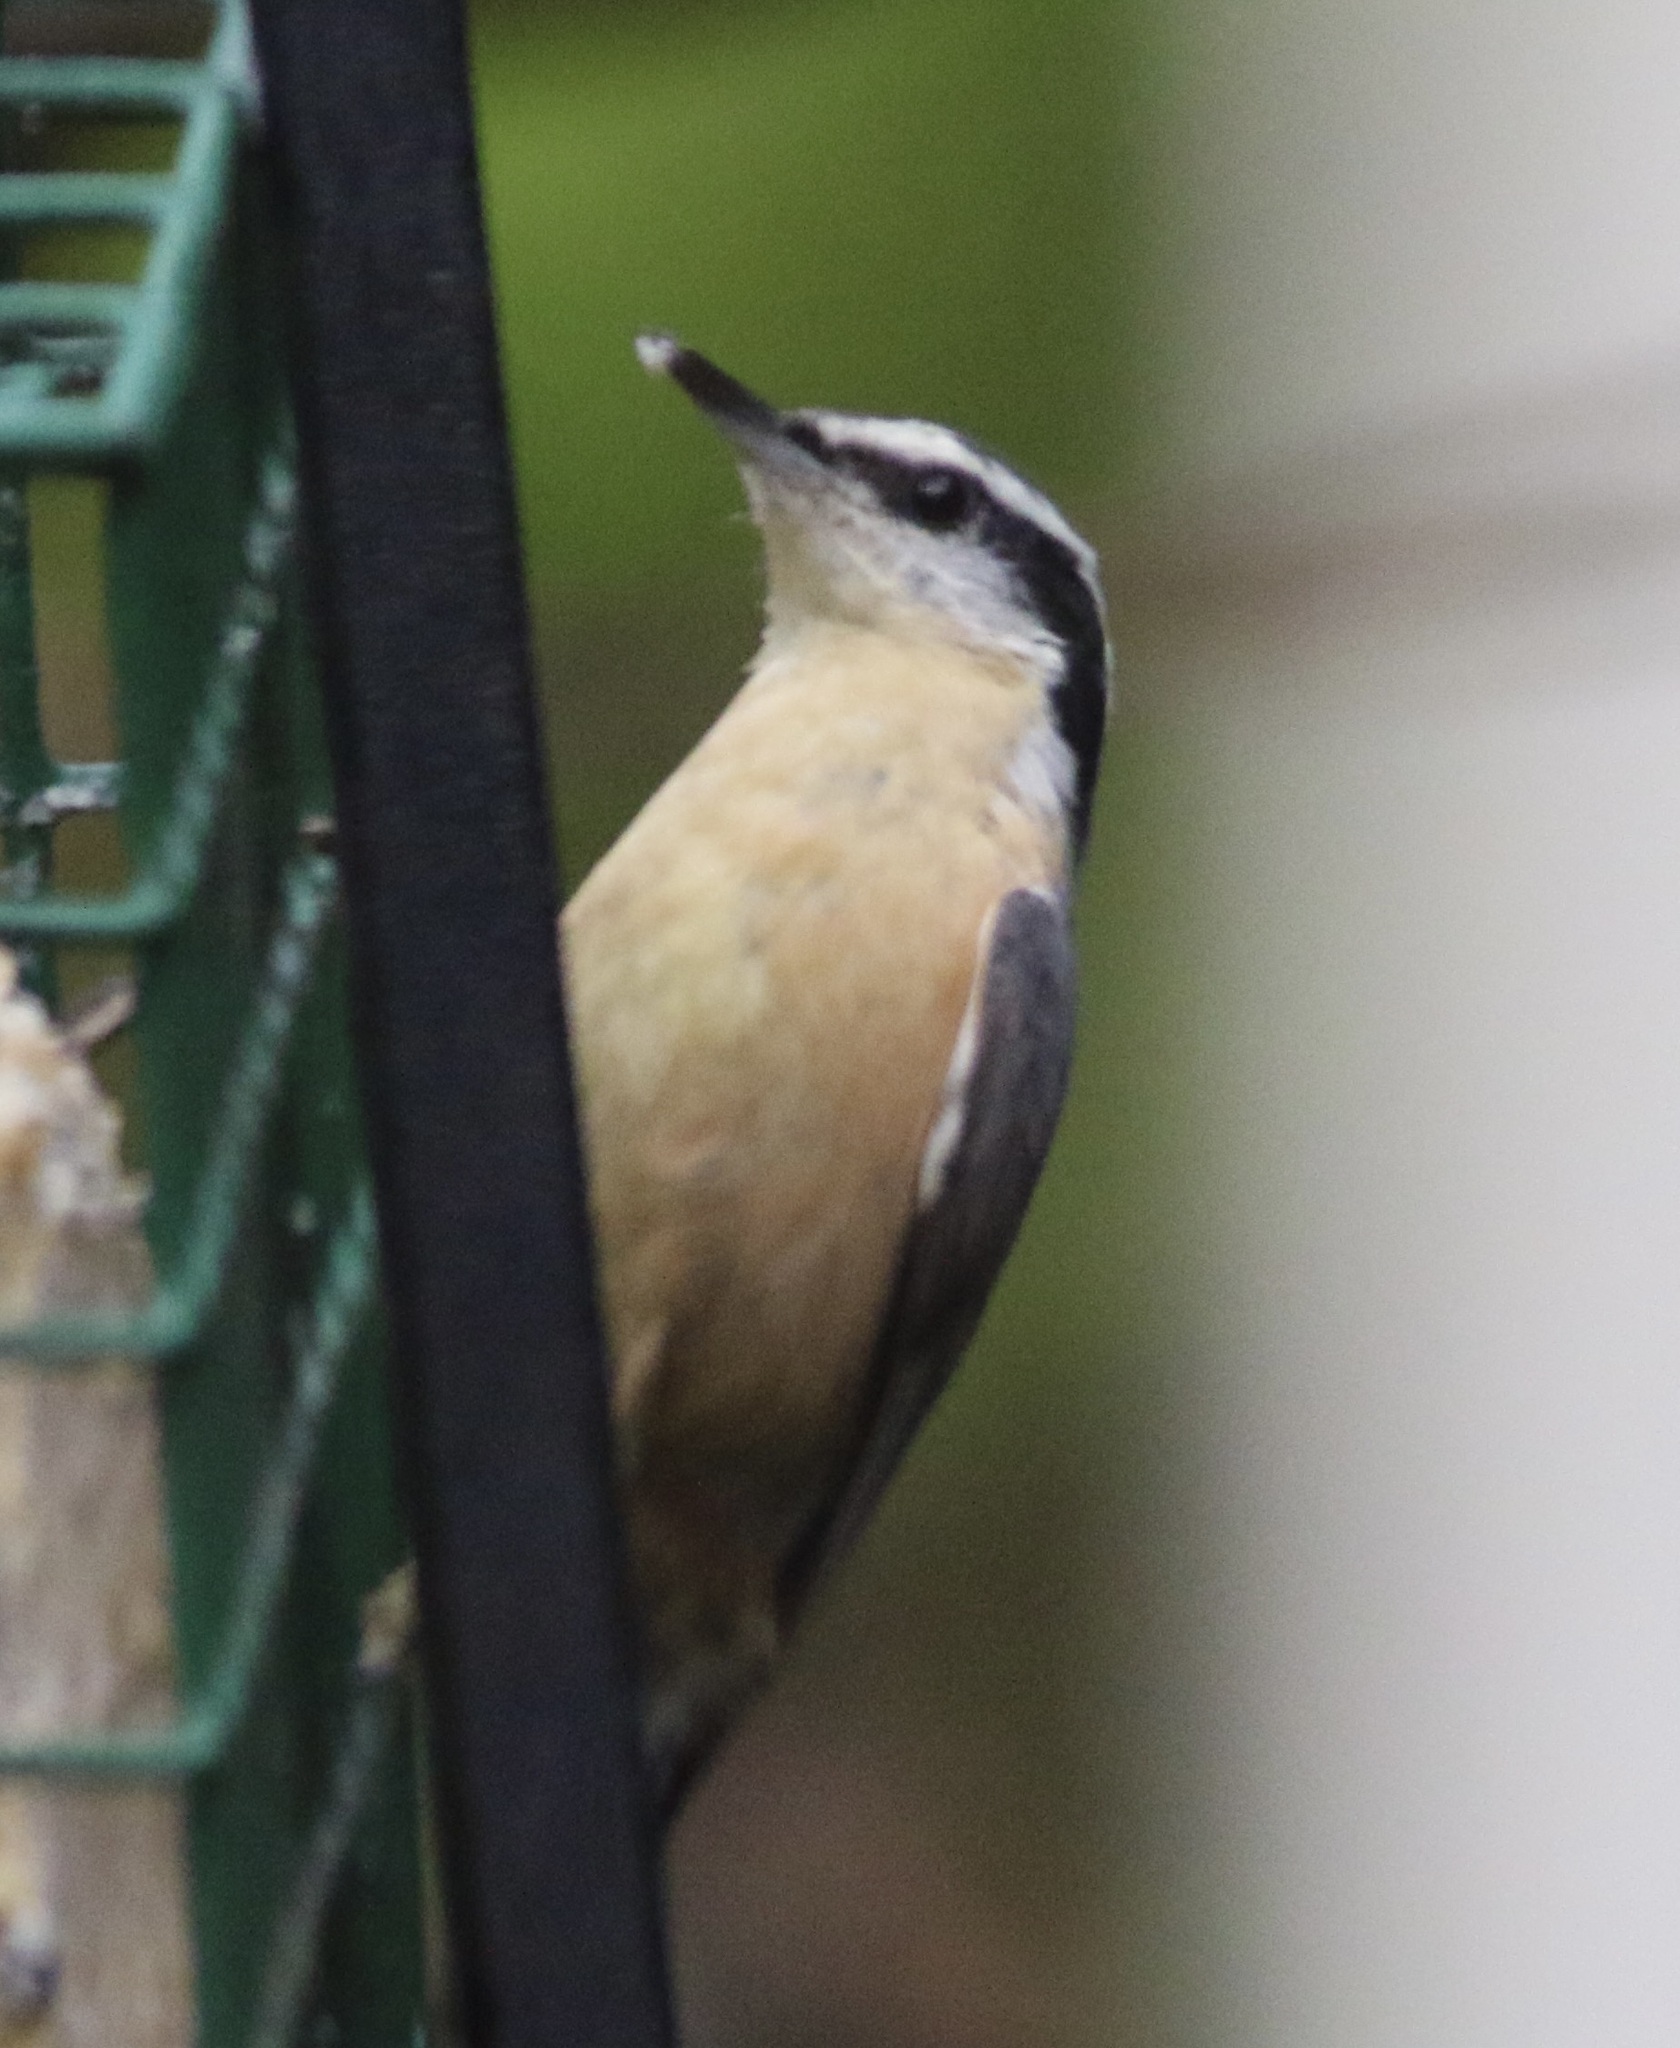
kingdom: Animalia
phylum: Chordata
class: Aves
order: Passeriformes
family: Sittidae
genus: Sitta
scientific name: Sitta canadensis
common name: Red-breasted nuthatch
